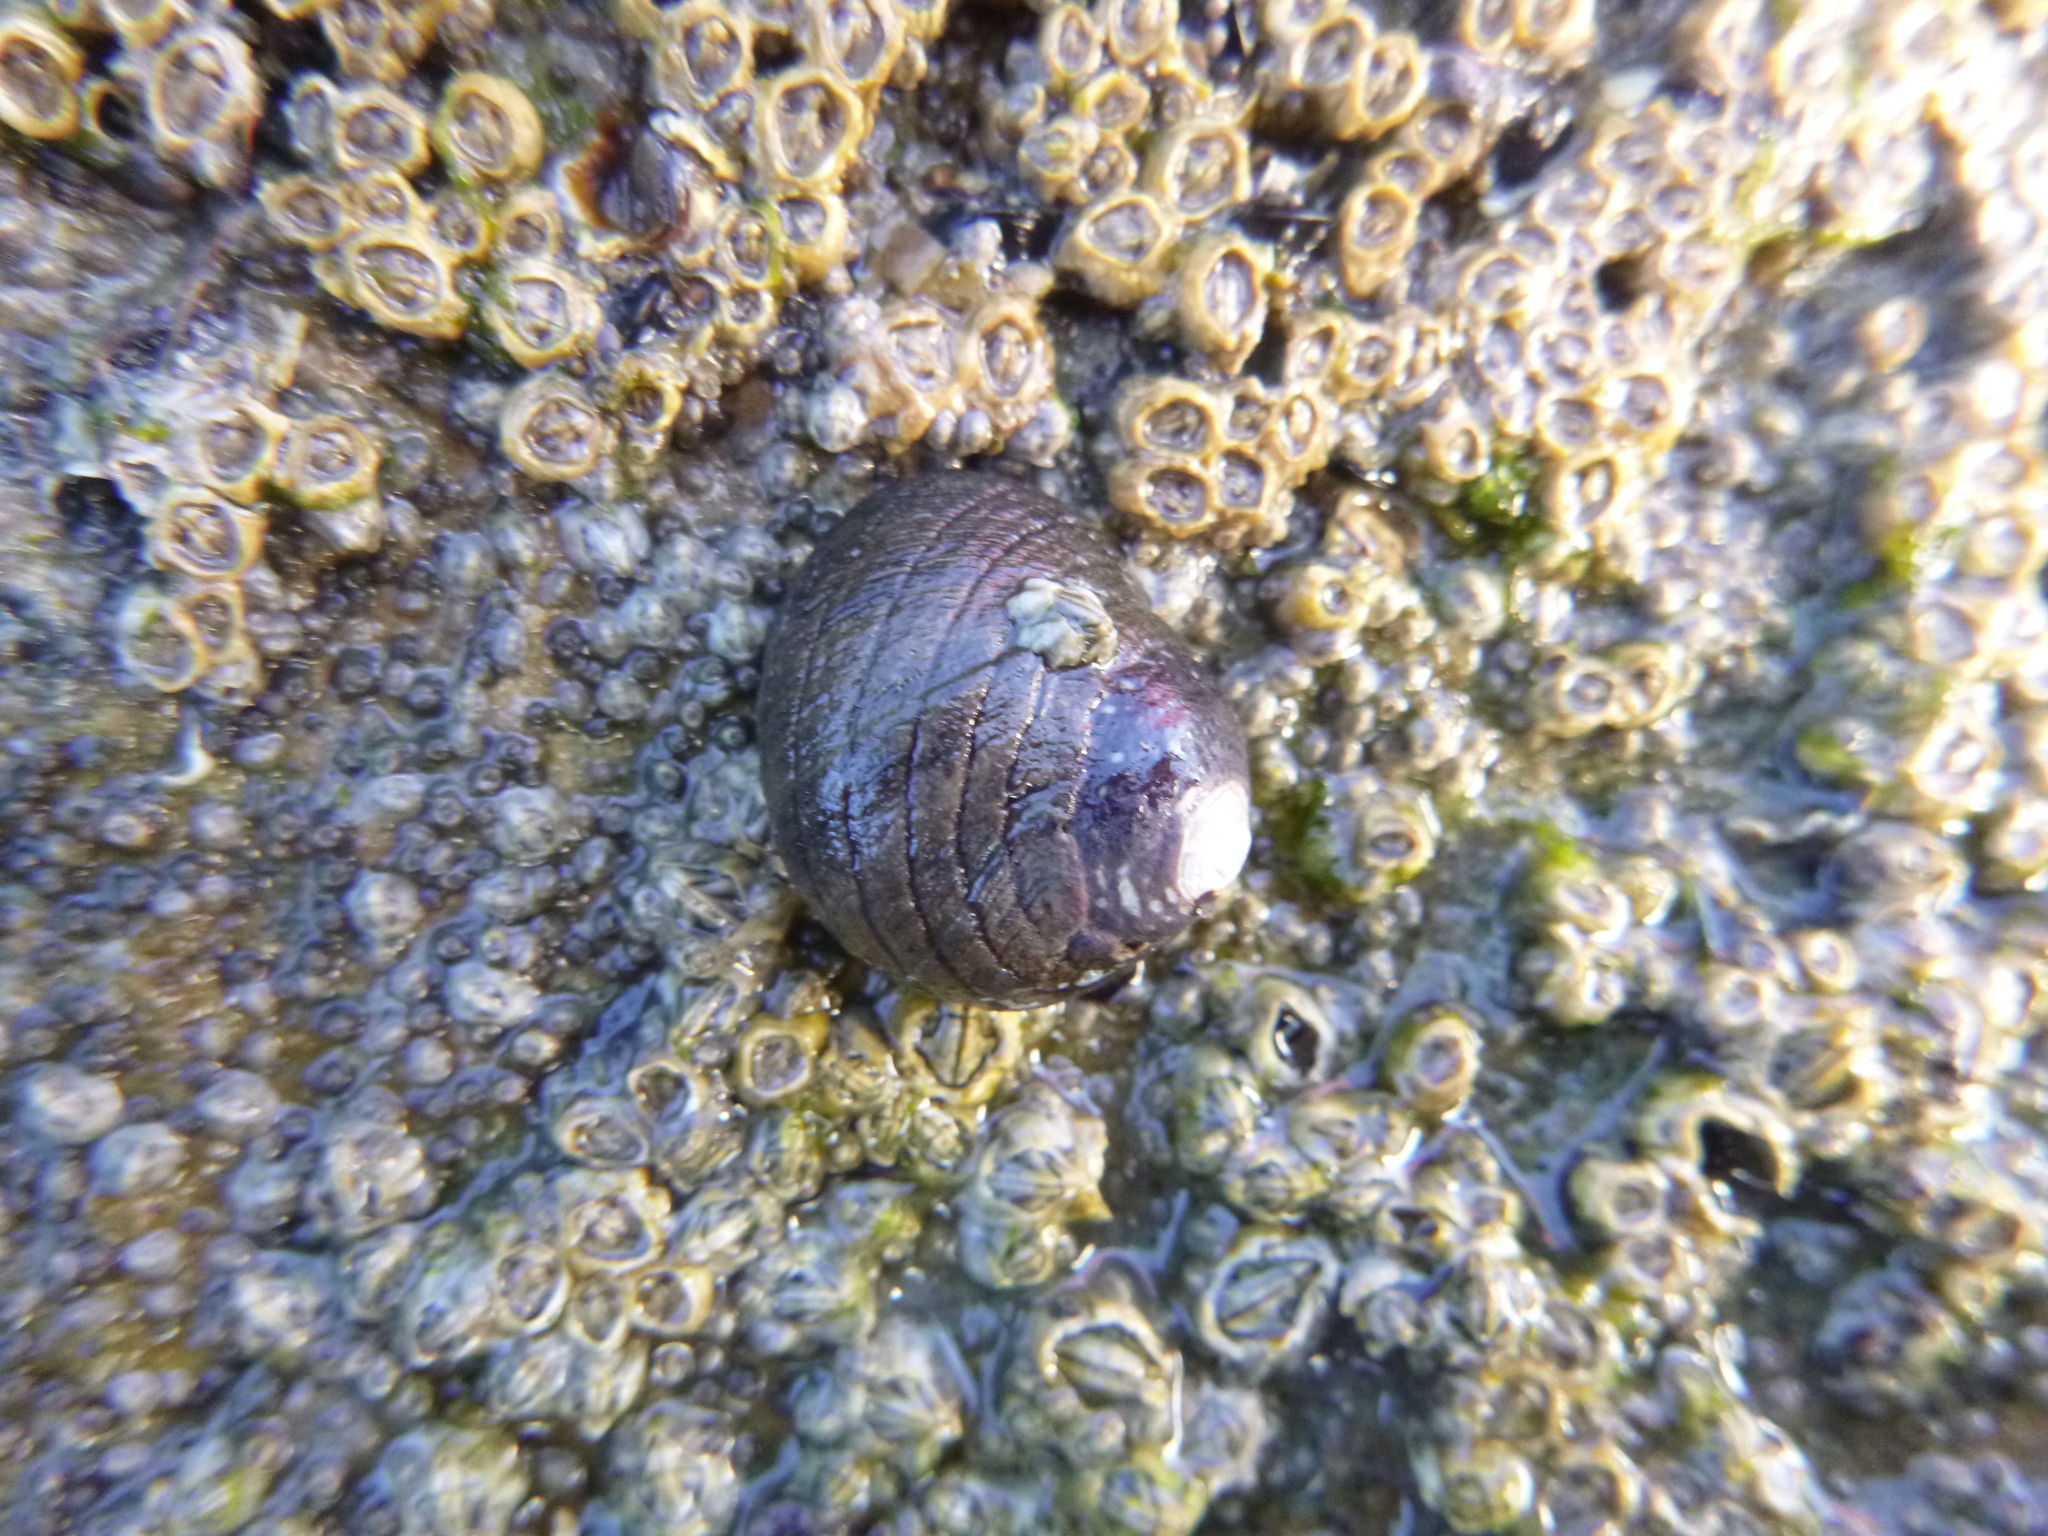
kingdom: Animalia
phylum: Mollusca
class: Gastropoda
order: Trochida
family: Trochidae
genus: Diloma
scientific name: Diloma aethiops
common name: Scorched monodont
